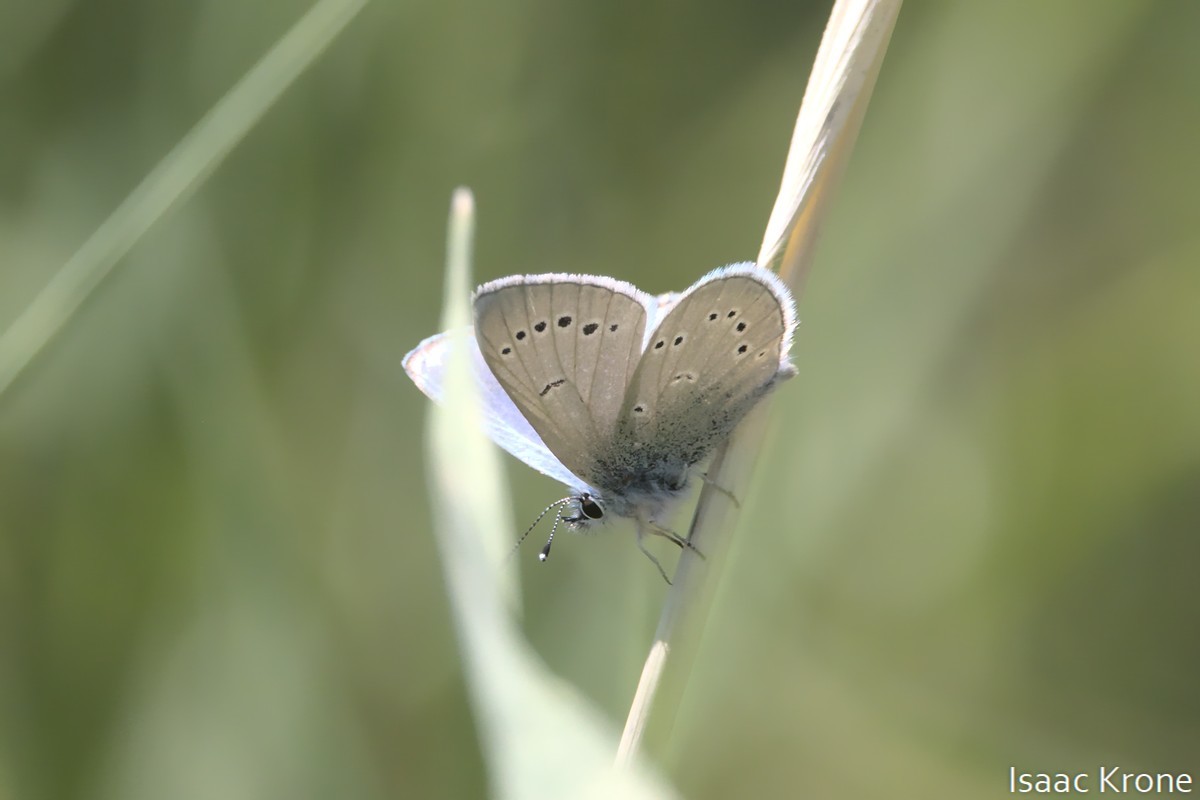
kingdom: Animalia
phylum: Arthropoda
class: Insecta
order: Lepidoptera
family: Lycaenidae
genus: Glaucopsyche
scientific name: Glaucopsyche lygdamus
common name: Silvery blue
